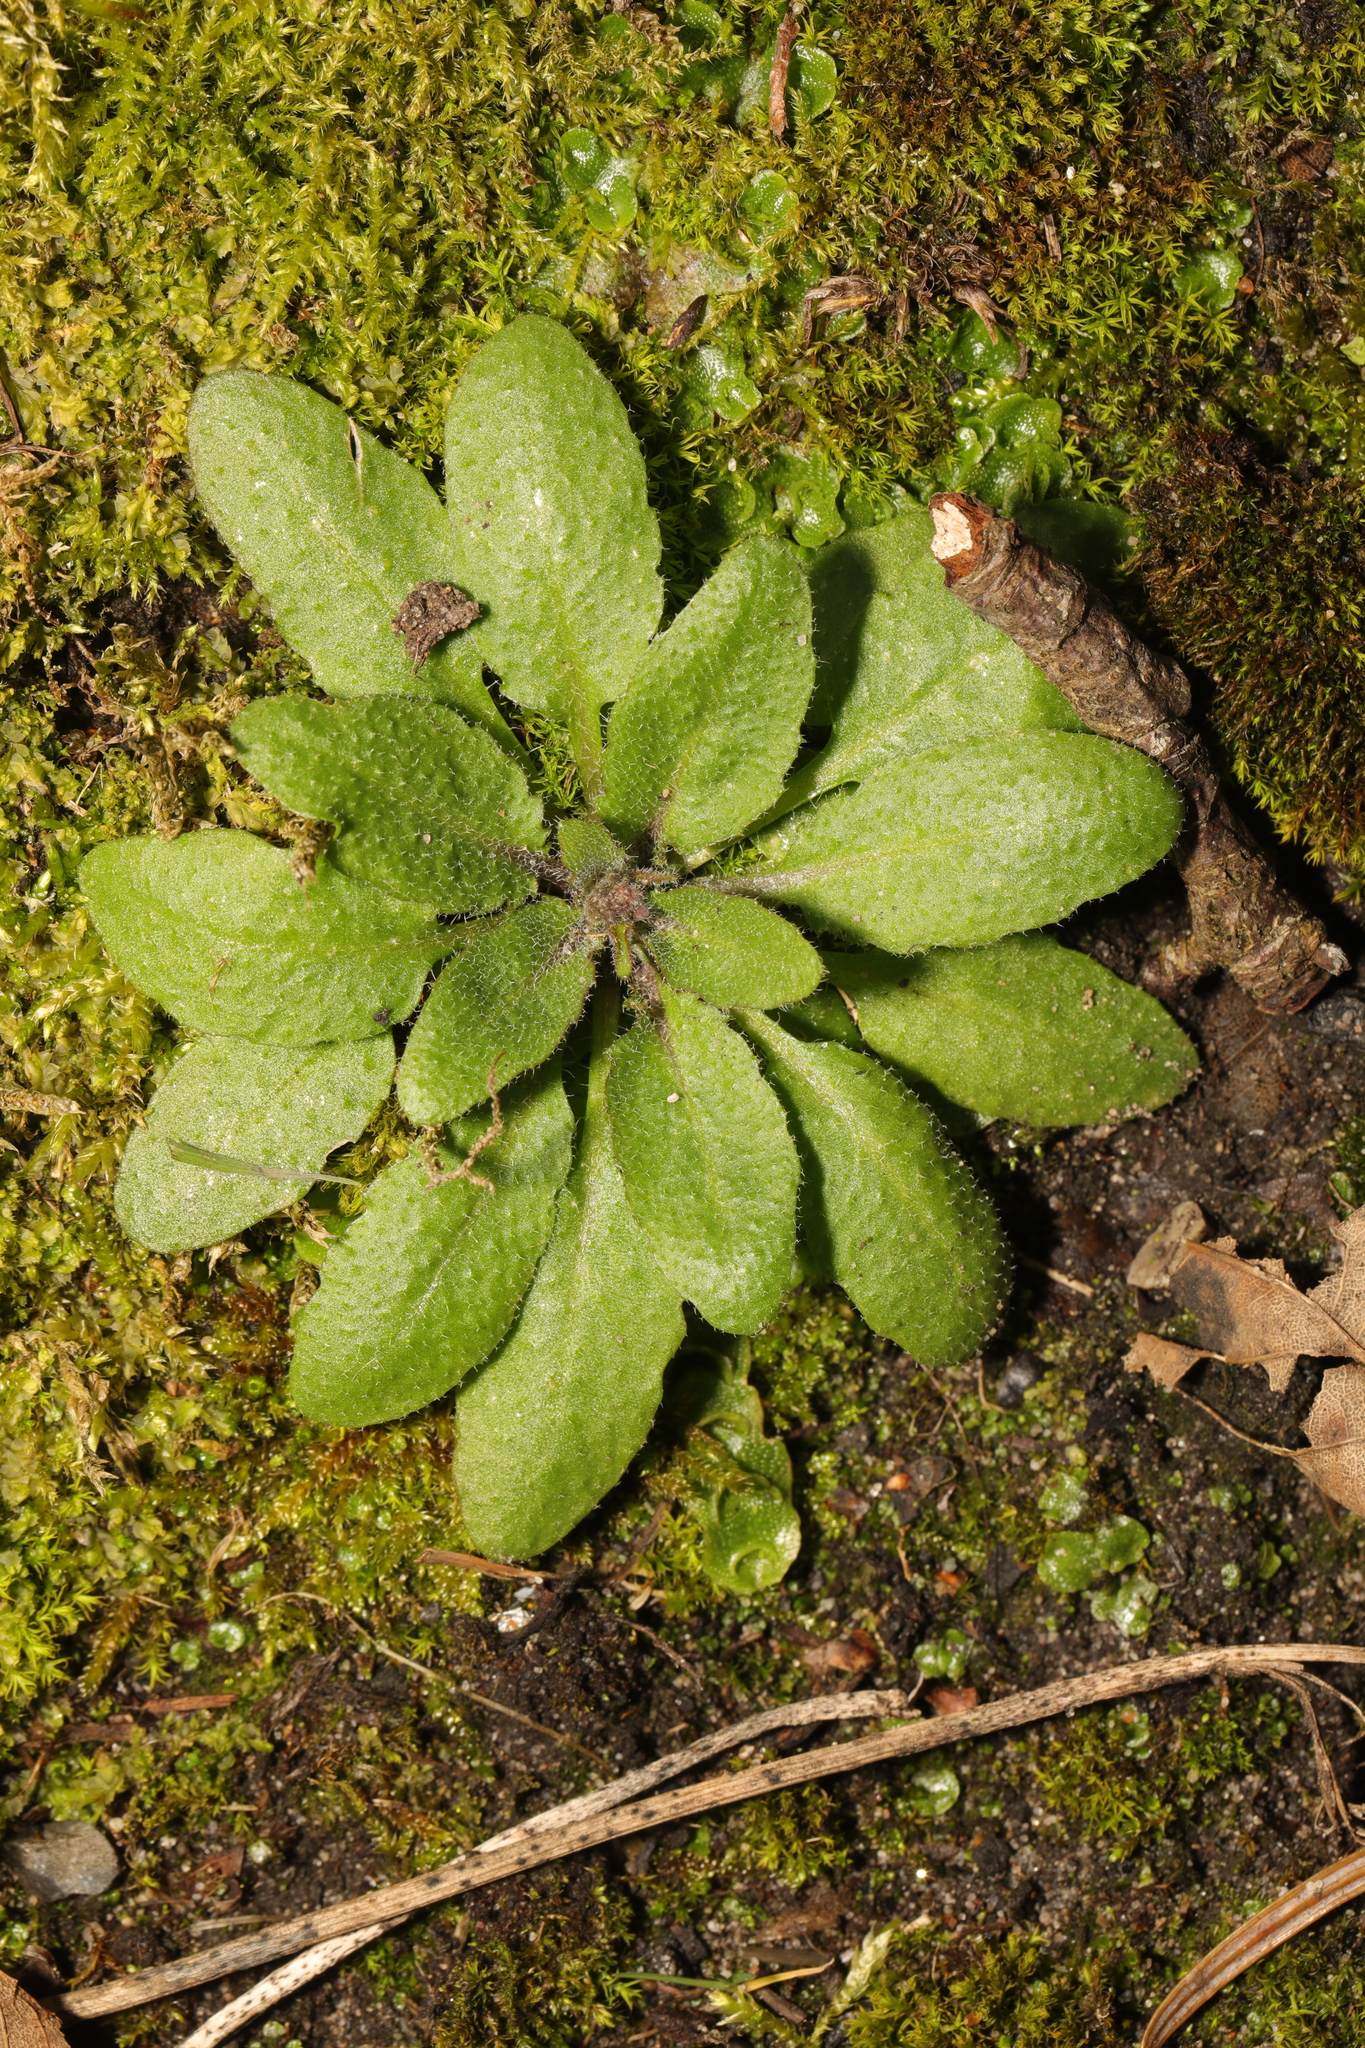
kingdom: Plantae
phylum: Tracheophyta
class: Magnoliopsida
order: Brassicales
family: Brassicaceae
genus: Arabidopsis
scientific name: Arabidopsis thaliana
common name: Thale cress
